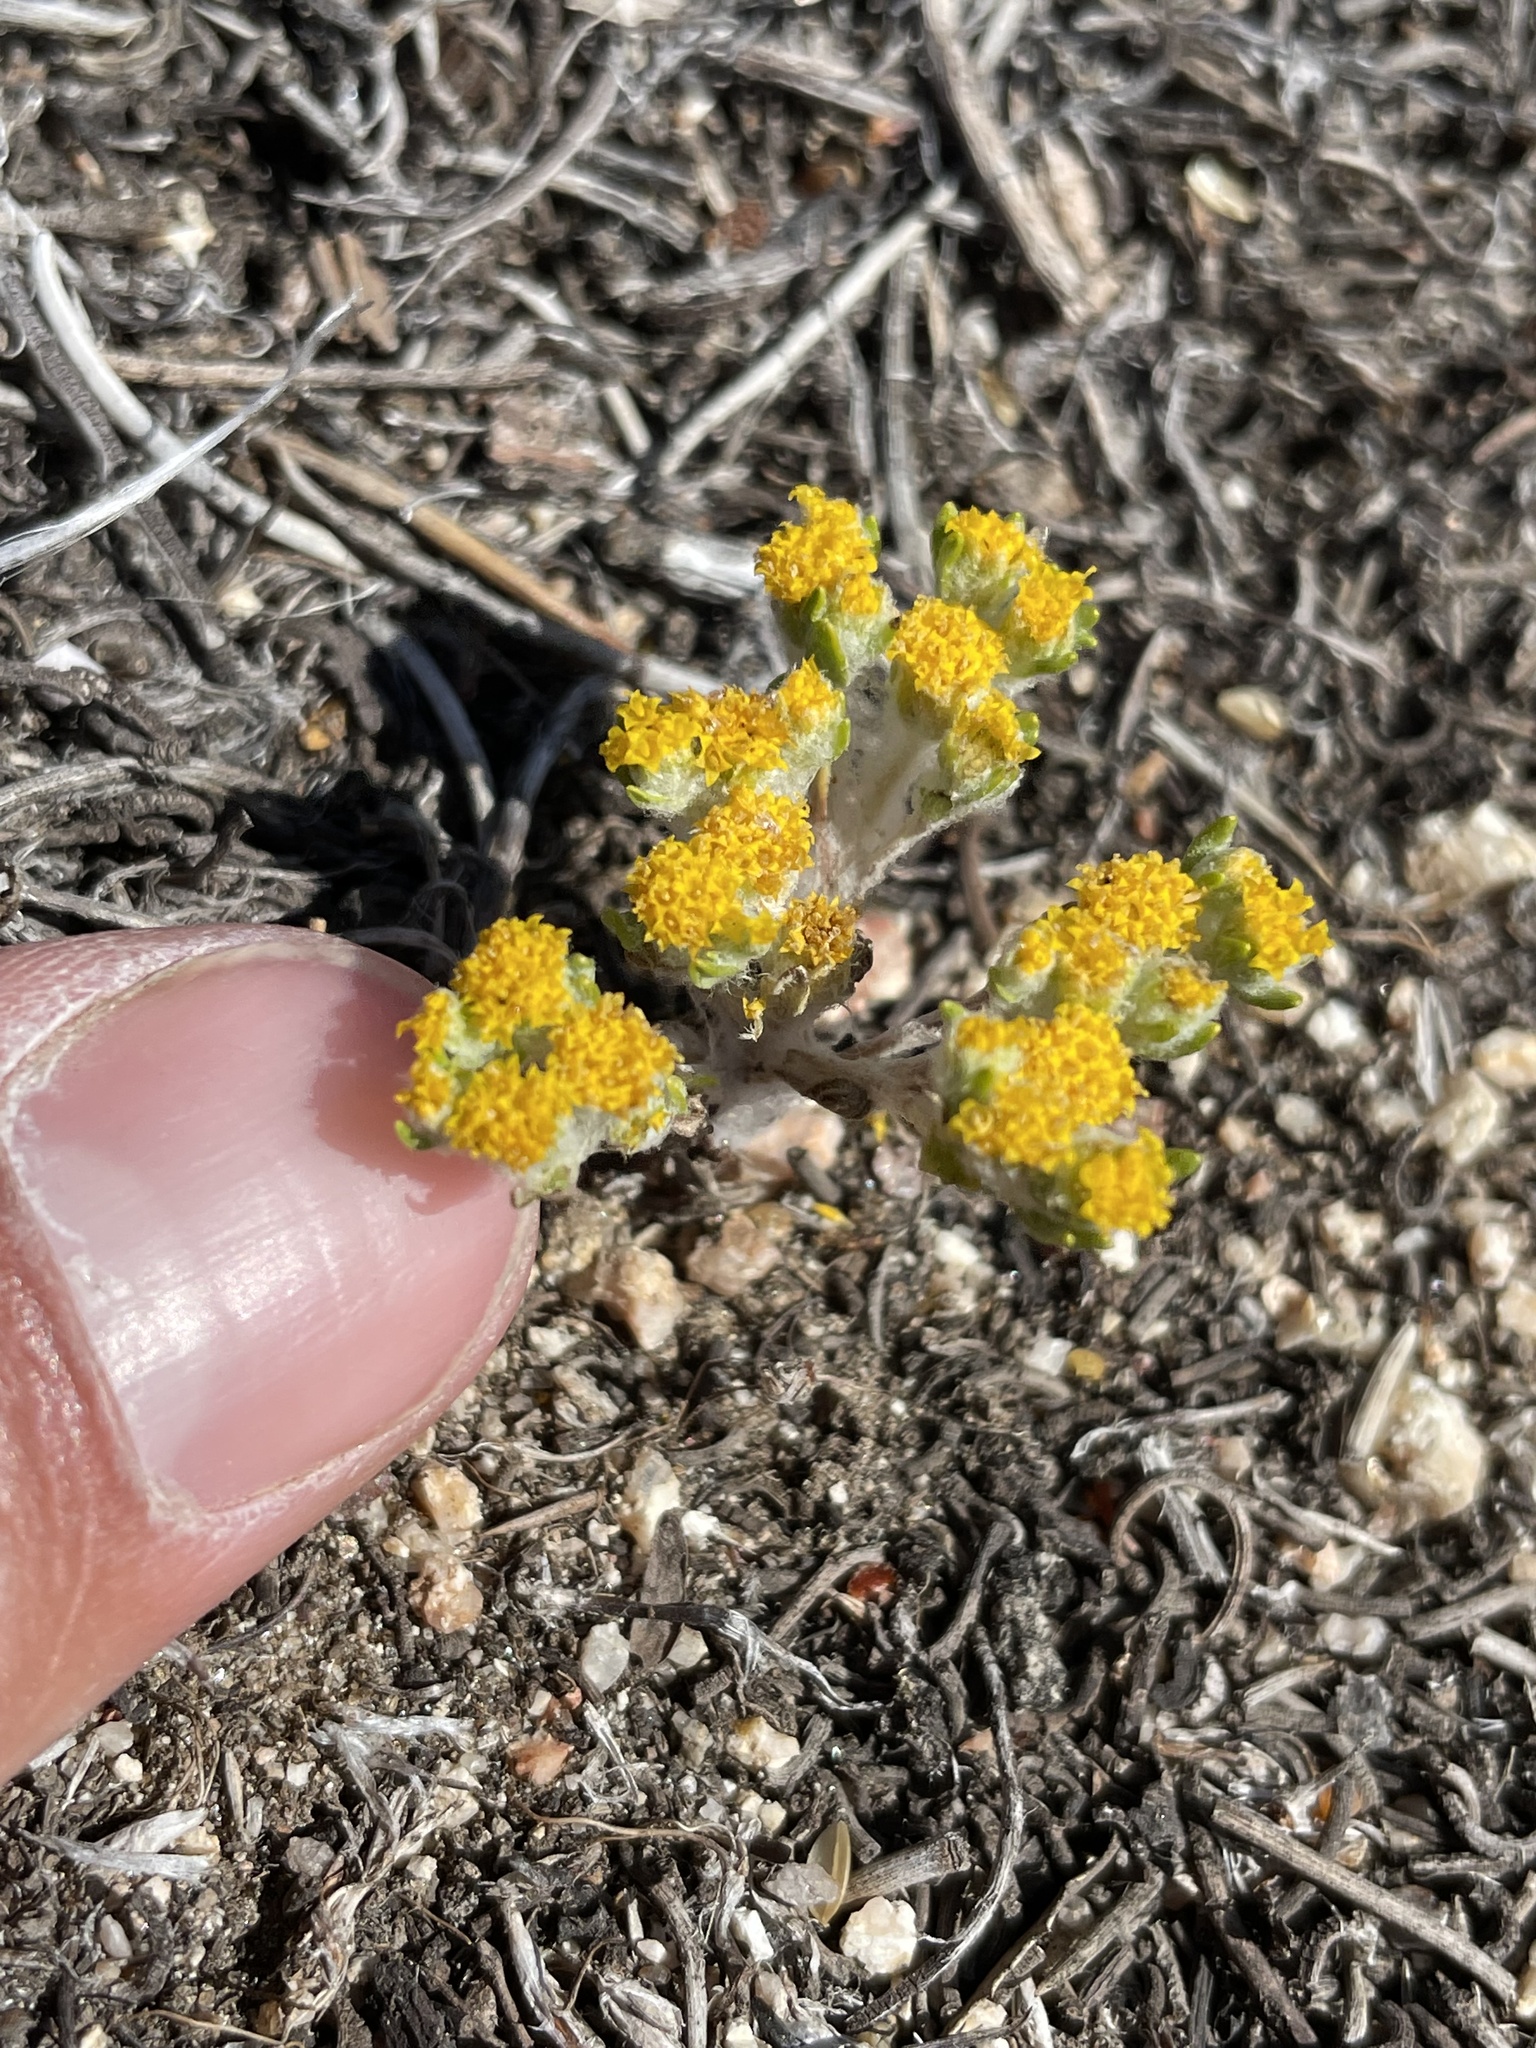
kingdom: Plantae
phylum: Tracheophyta
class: Magnoliopsida
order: Asterales
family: Asteraceae
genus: Eriophyllum
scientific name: Eriophyllum pringlei
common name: Pringle's woolly-sunflower
